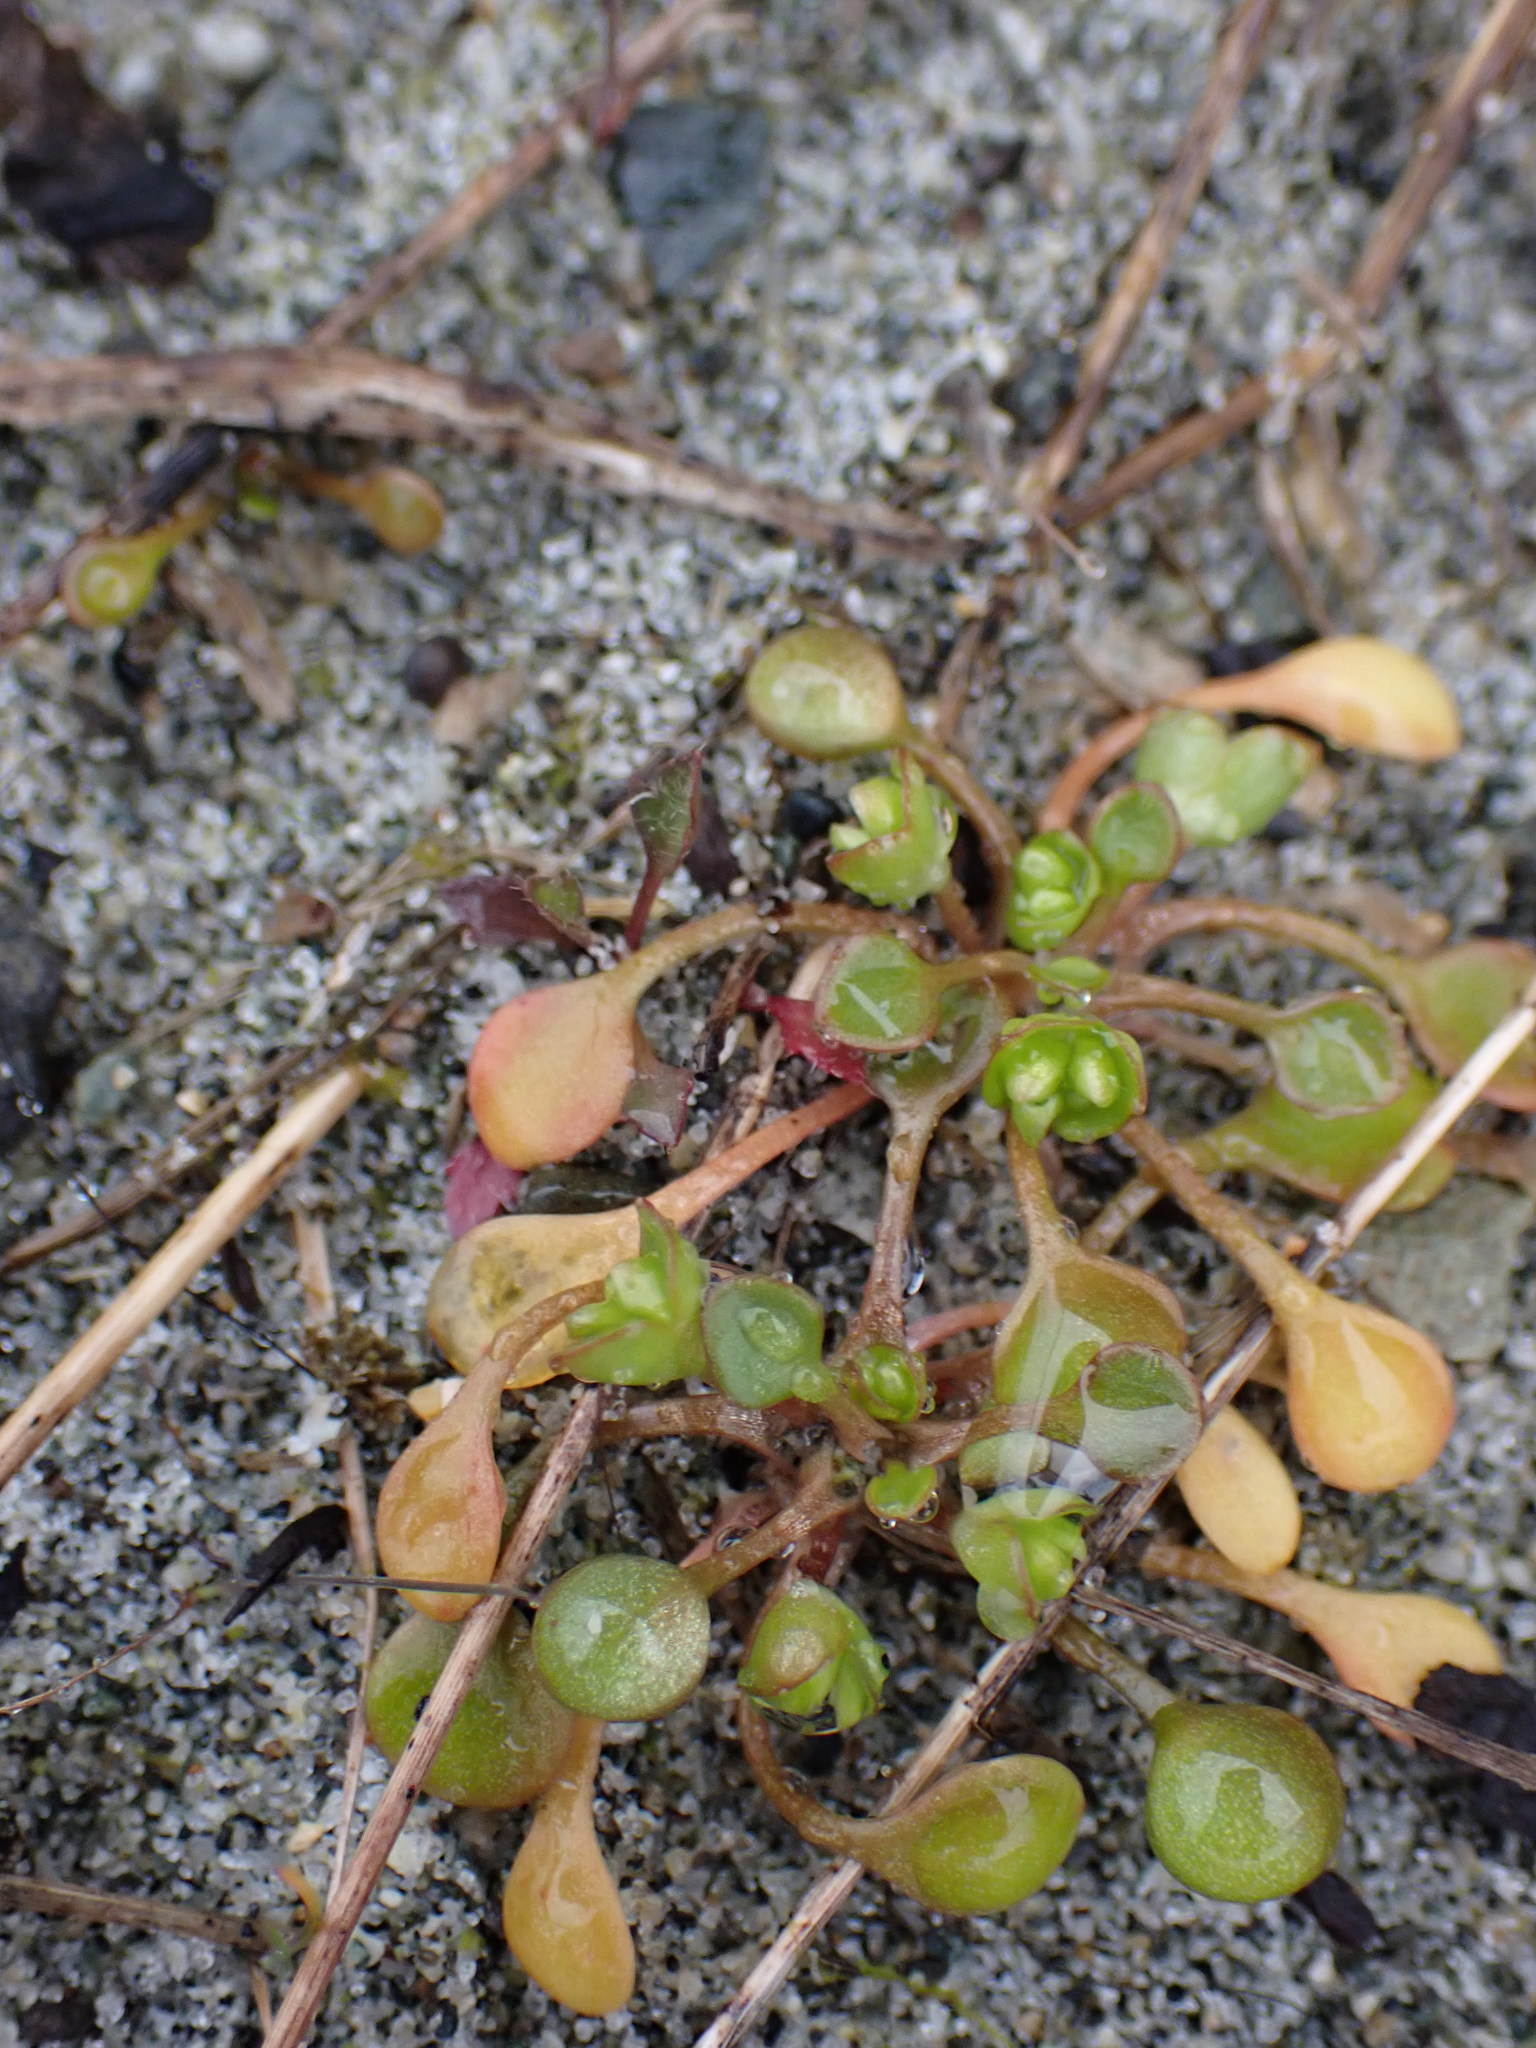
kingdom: Plantae
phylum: Tracheophyta
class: Magnoliopsida
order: Caryophyllales
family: Montiaceae
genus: Claytonia
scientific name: Claytonia rubra
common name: Erubescent miner's-lettuce
